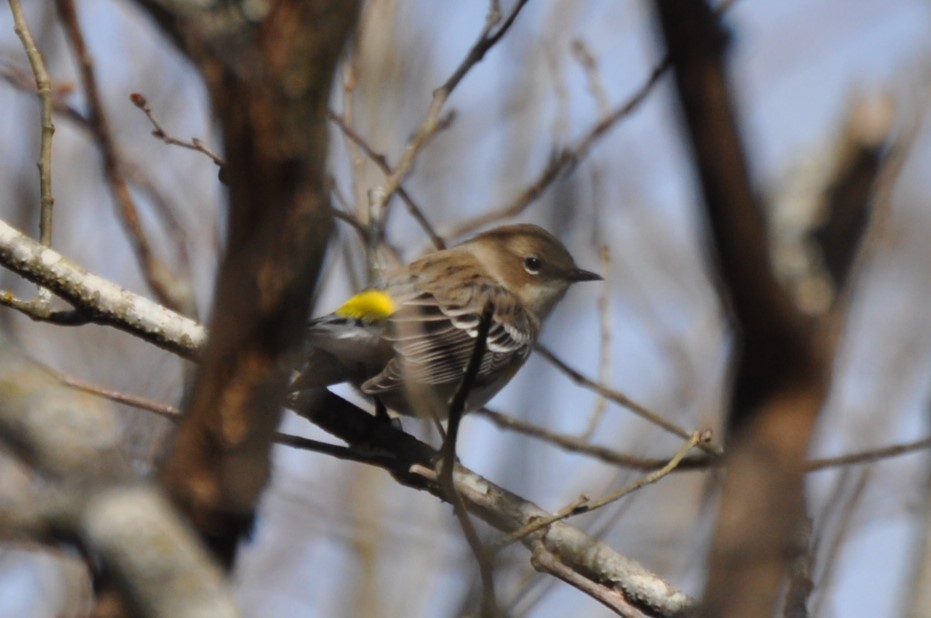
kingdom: Animalia
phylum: Chordata
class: Aves
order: Passeriformes
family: Parulidae
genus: Setophaga
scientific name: Setophaga coronata
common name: Myrtle warbler
